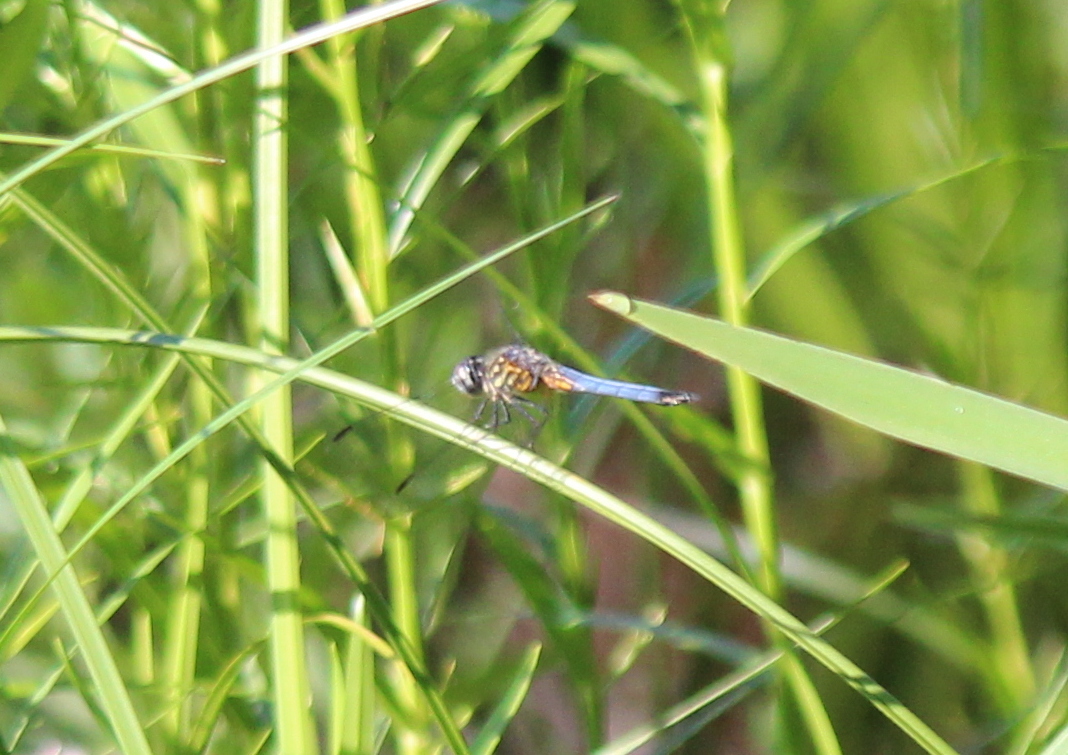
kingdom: Animalia
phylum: Arthropoda
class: Insecta
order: Odonata
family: Libellulidae
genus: Pachydiplax
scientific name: Pachydiplax longipennis
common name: Blue dasher
